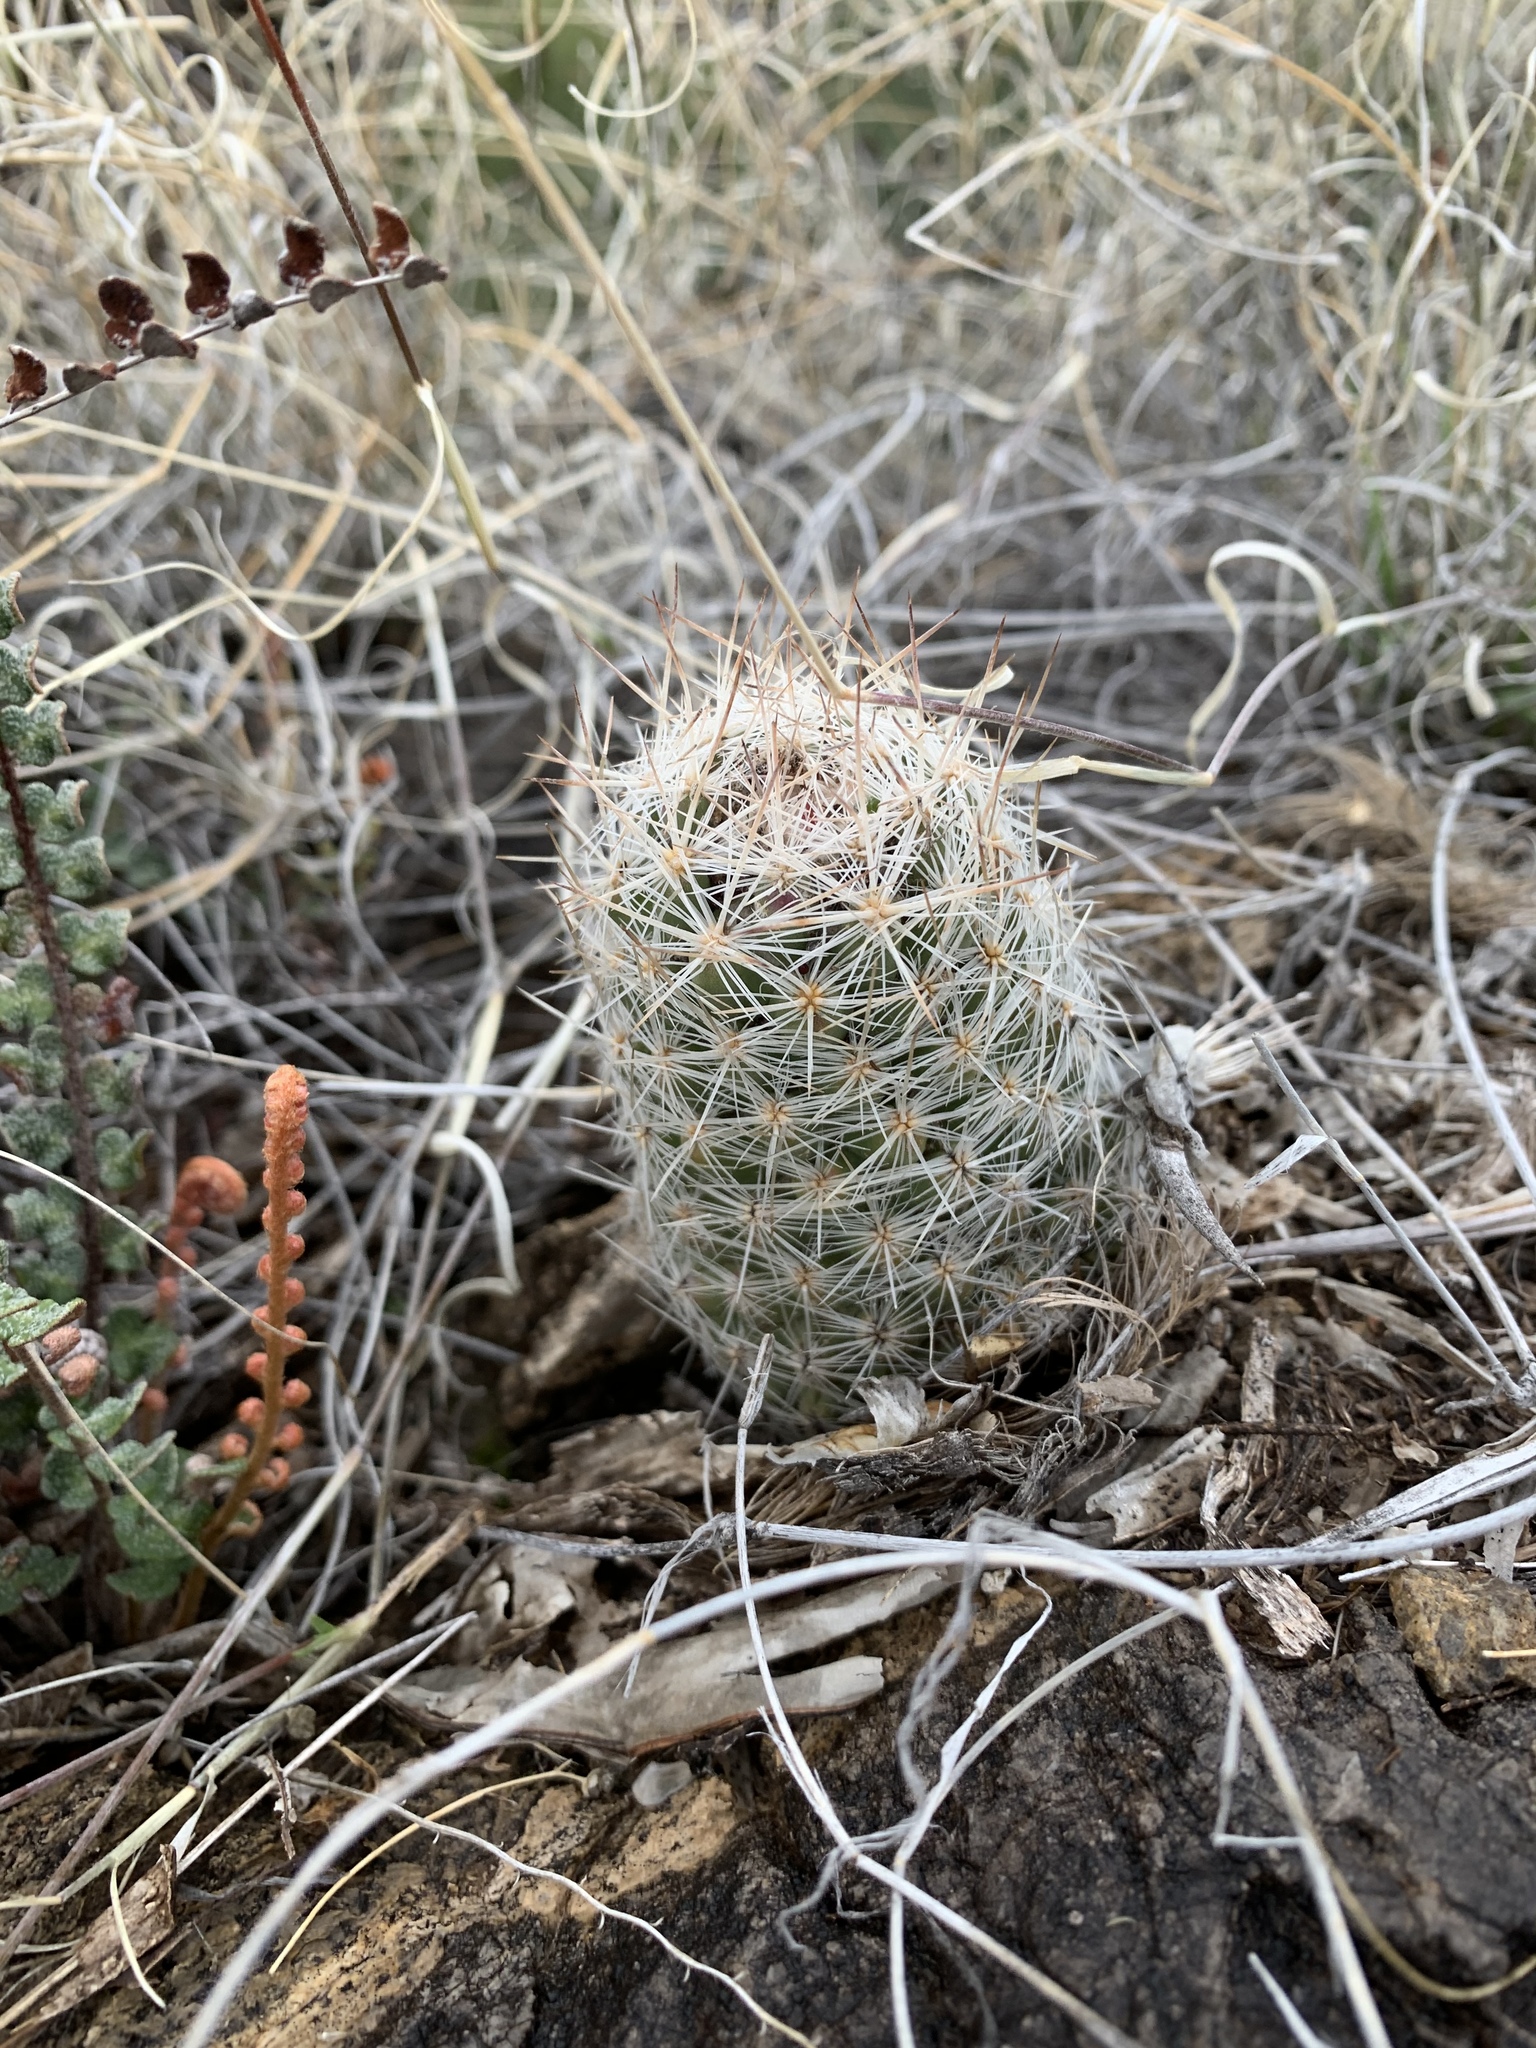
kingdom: Plantae
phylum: Tracheophyta
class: Magnoliopsida
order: Caryophyllales
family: Cactaceae
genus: Pelecyphora
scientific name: Pelecyphora tuberculosa
